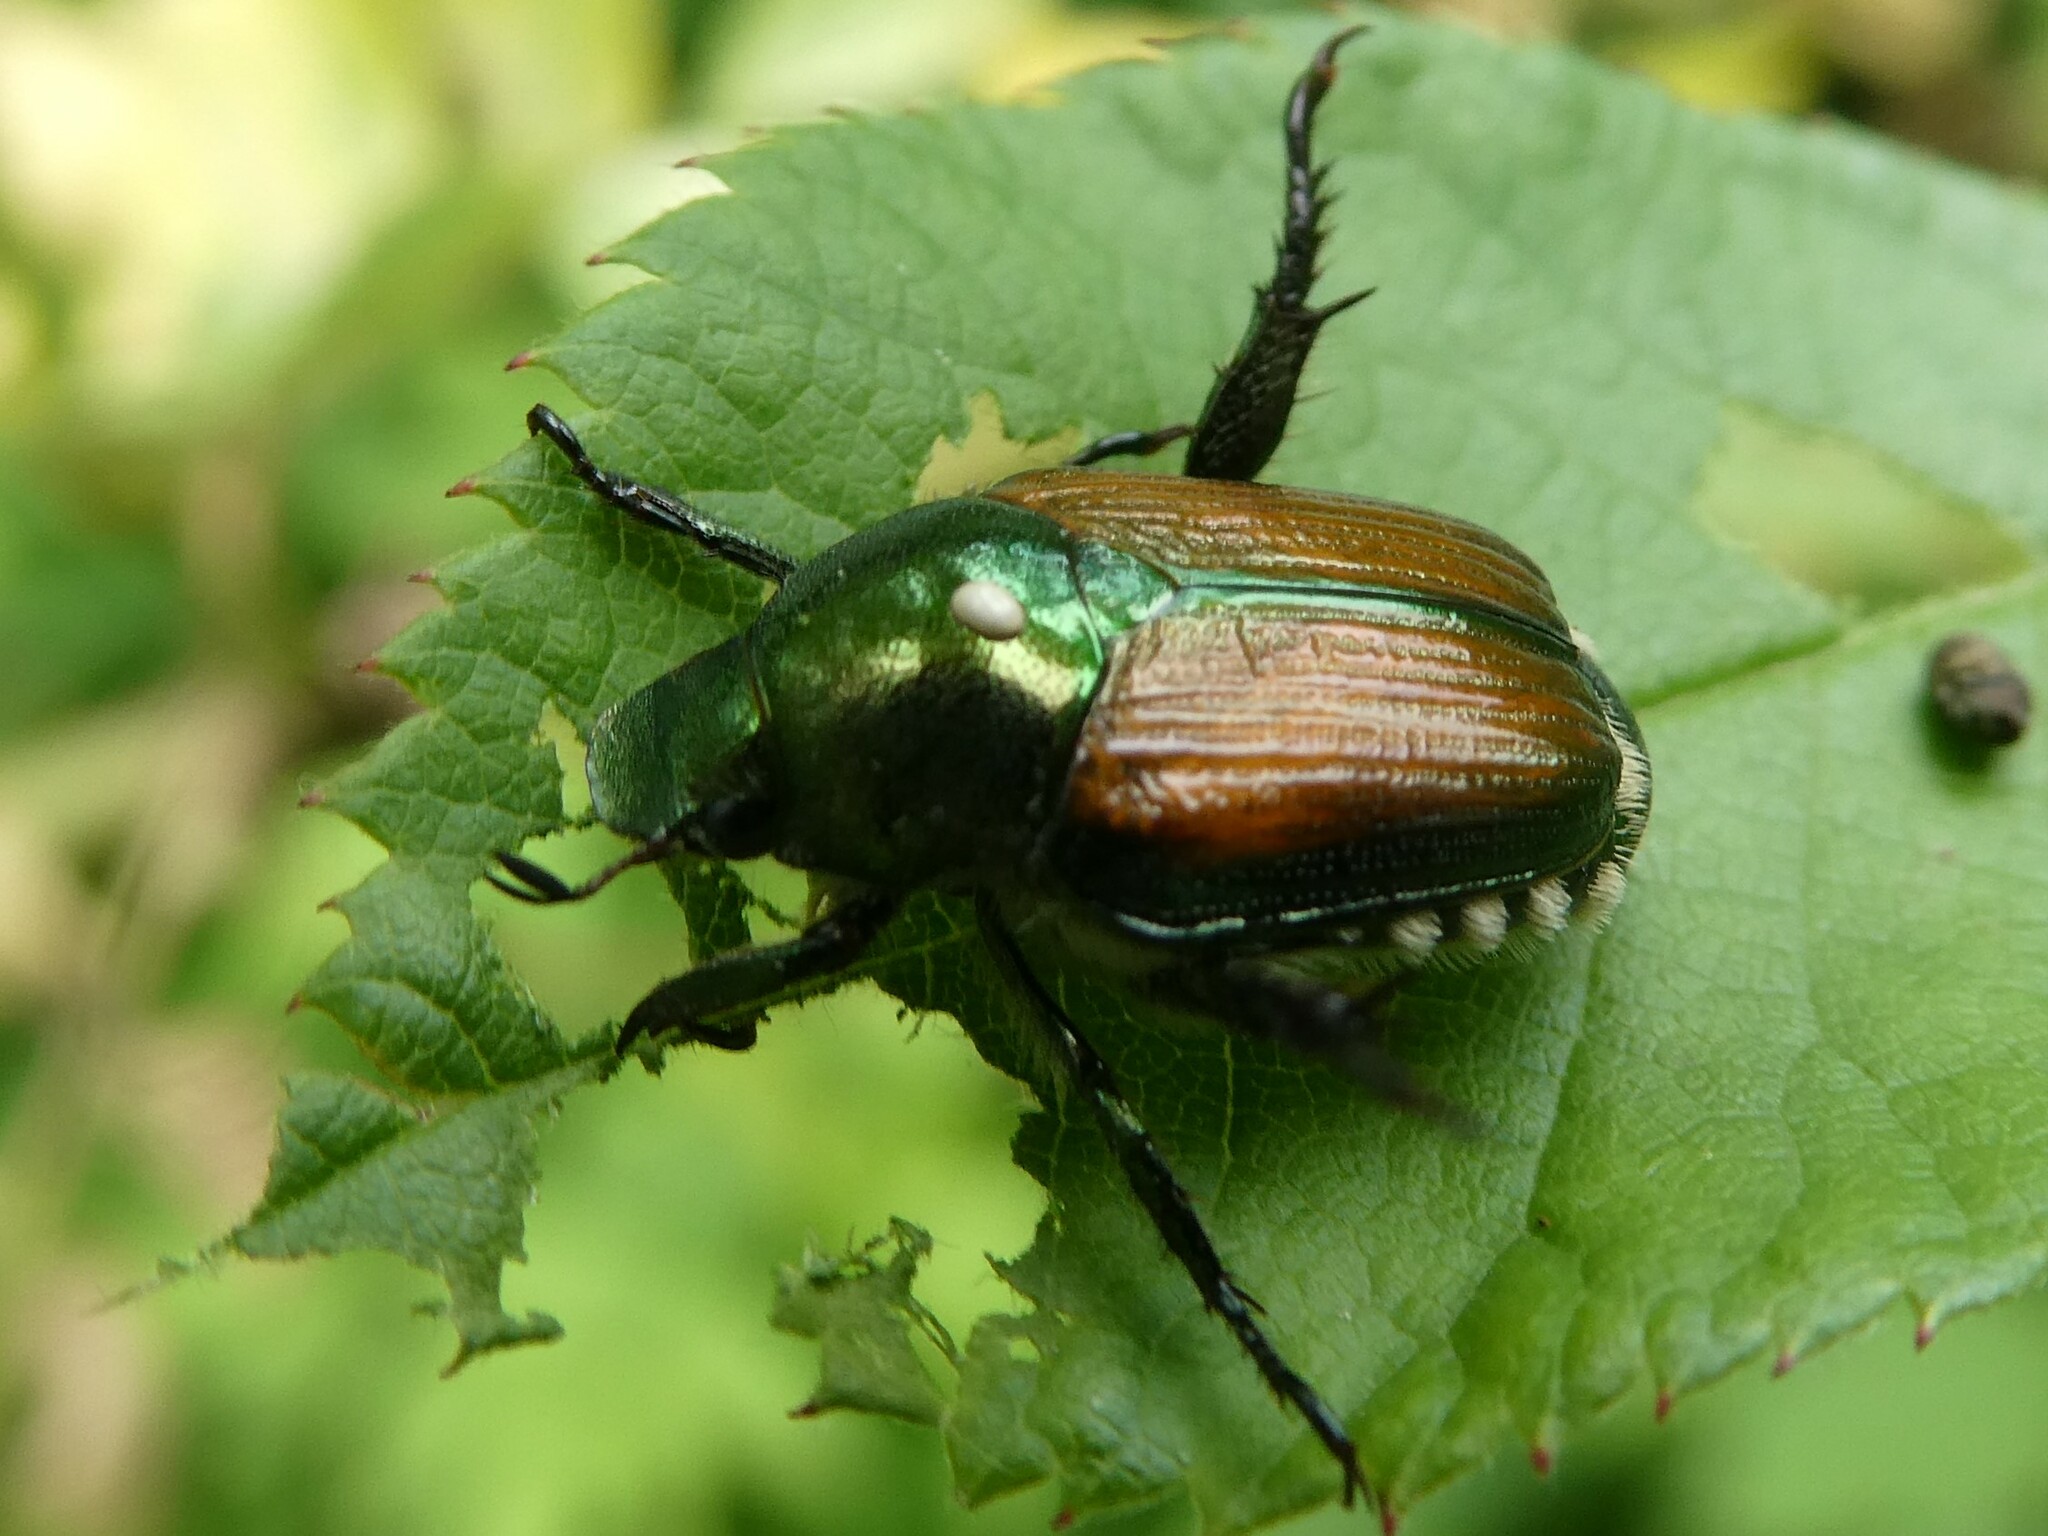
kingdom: Animalia
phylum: Arthropoda
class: Insecta
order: Coleoptera
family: Scarabaeidae
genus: Popillia
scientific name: Popillia japonica
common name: Japanese beetle
